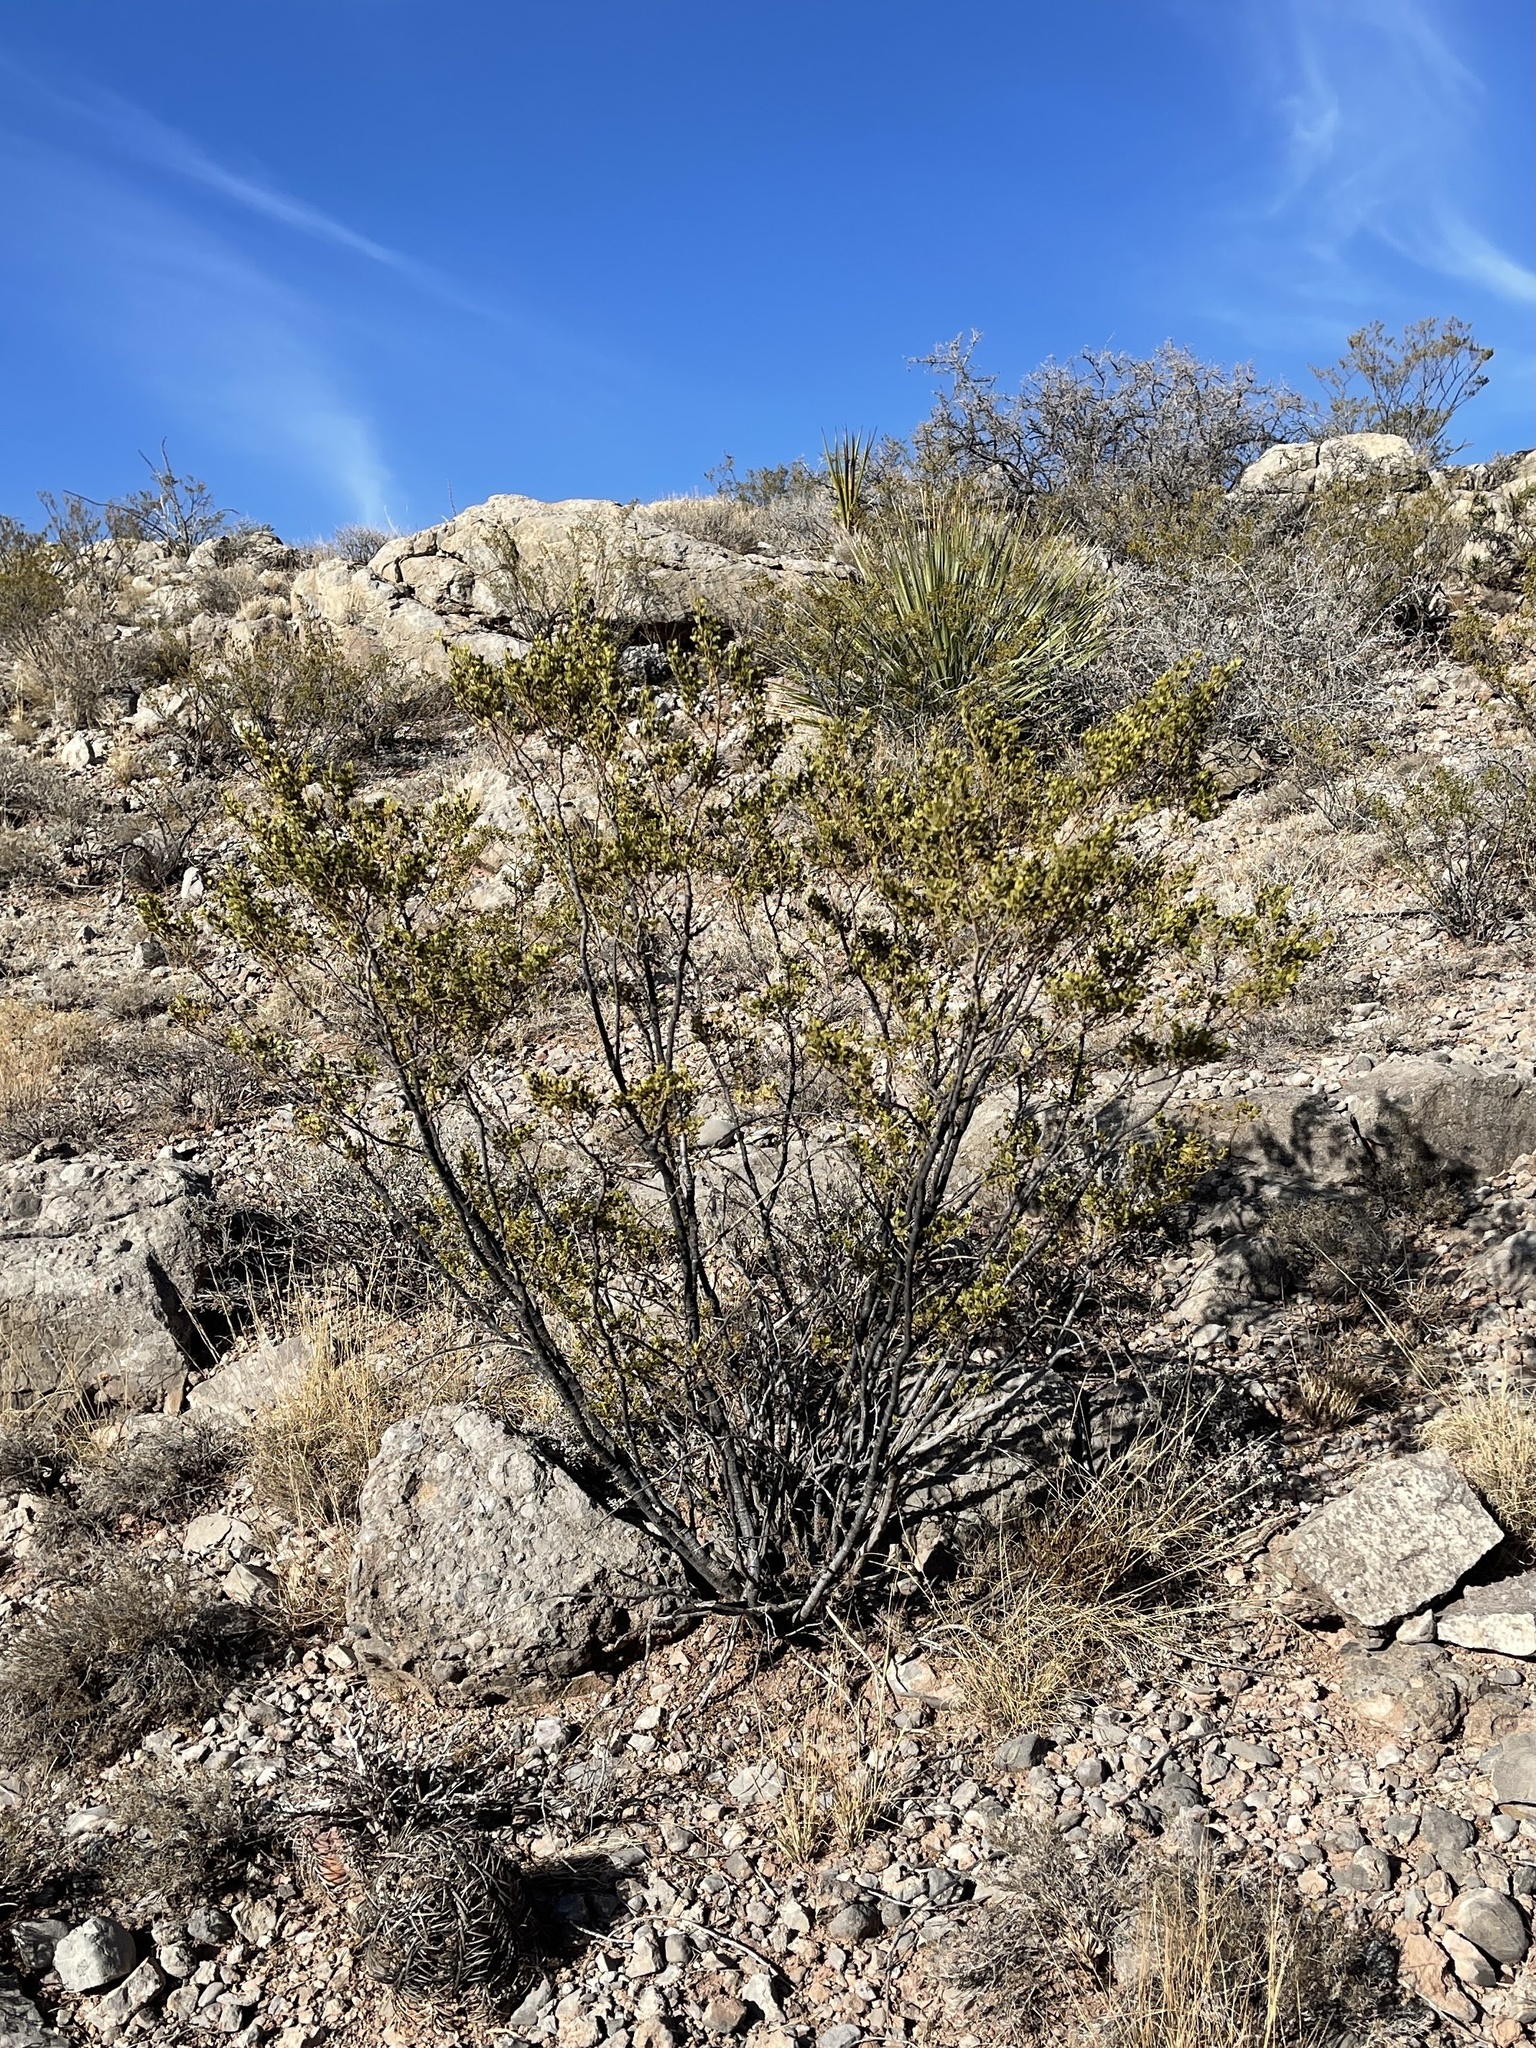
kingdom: Plantae
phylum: Tracheophyta
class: Magnoliopsida
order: Zygophyllales
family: Zygophyllaceae
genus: Larrea
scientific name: Larrea tridentata
